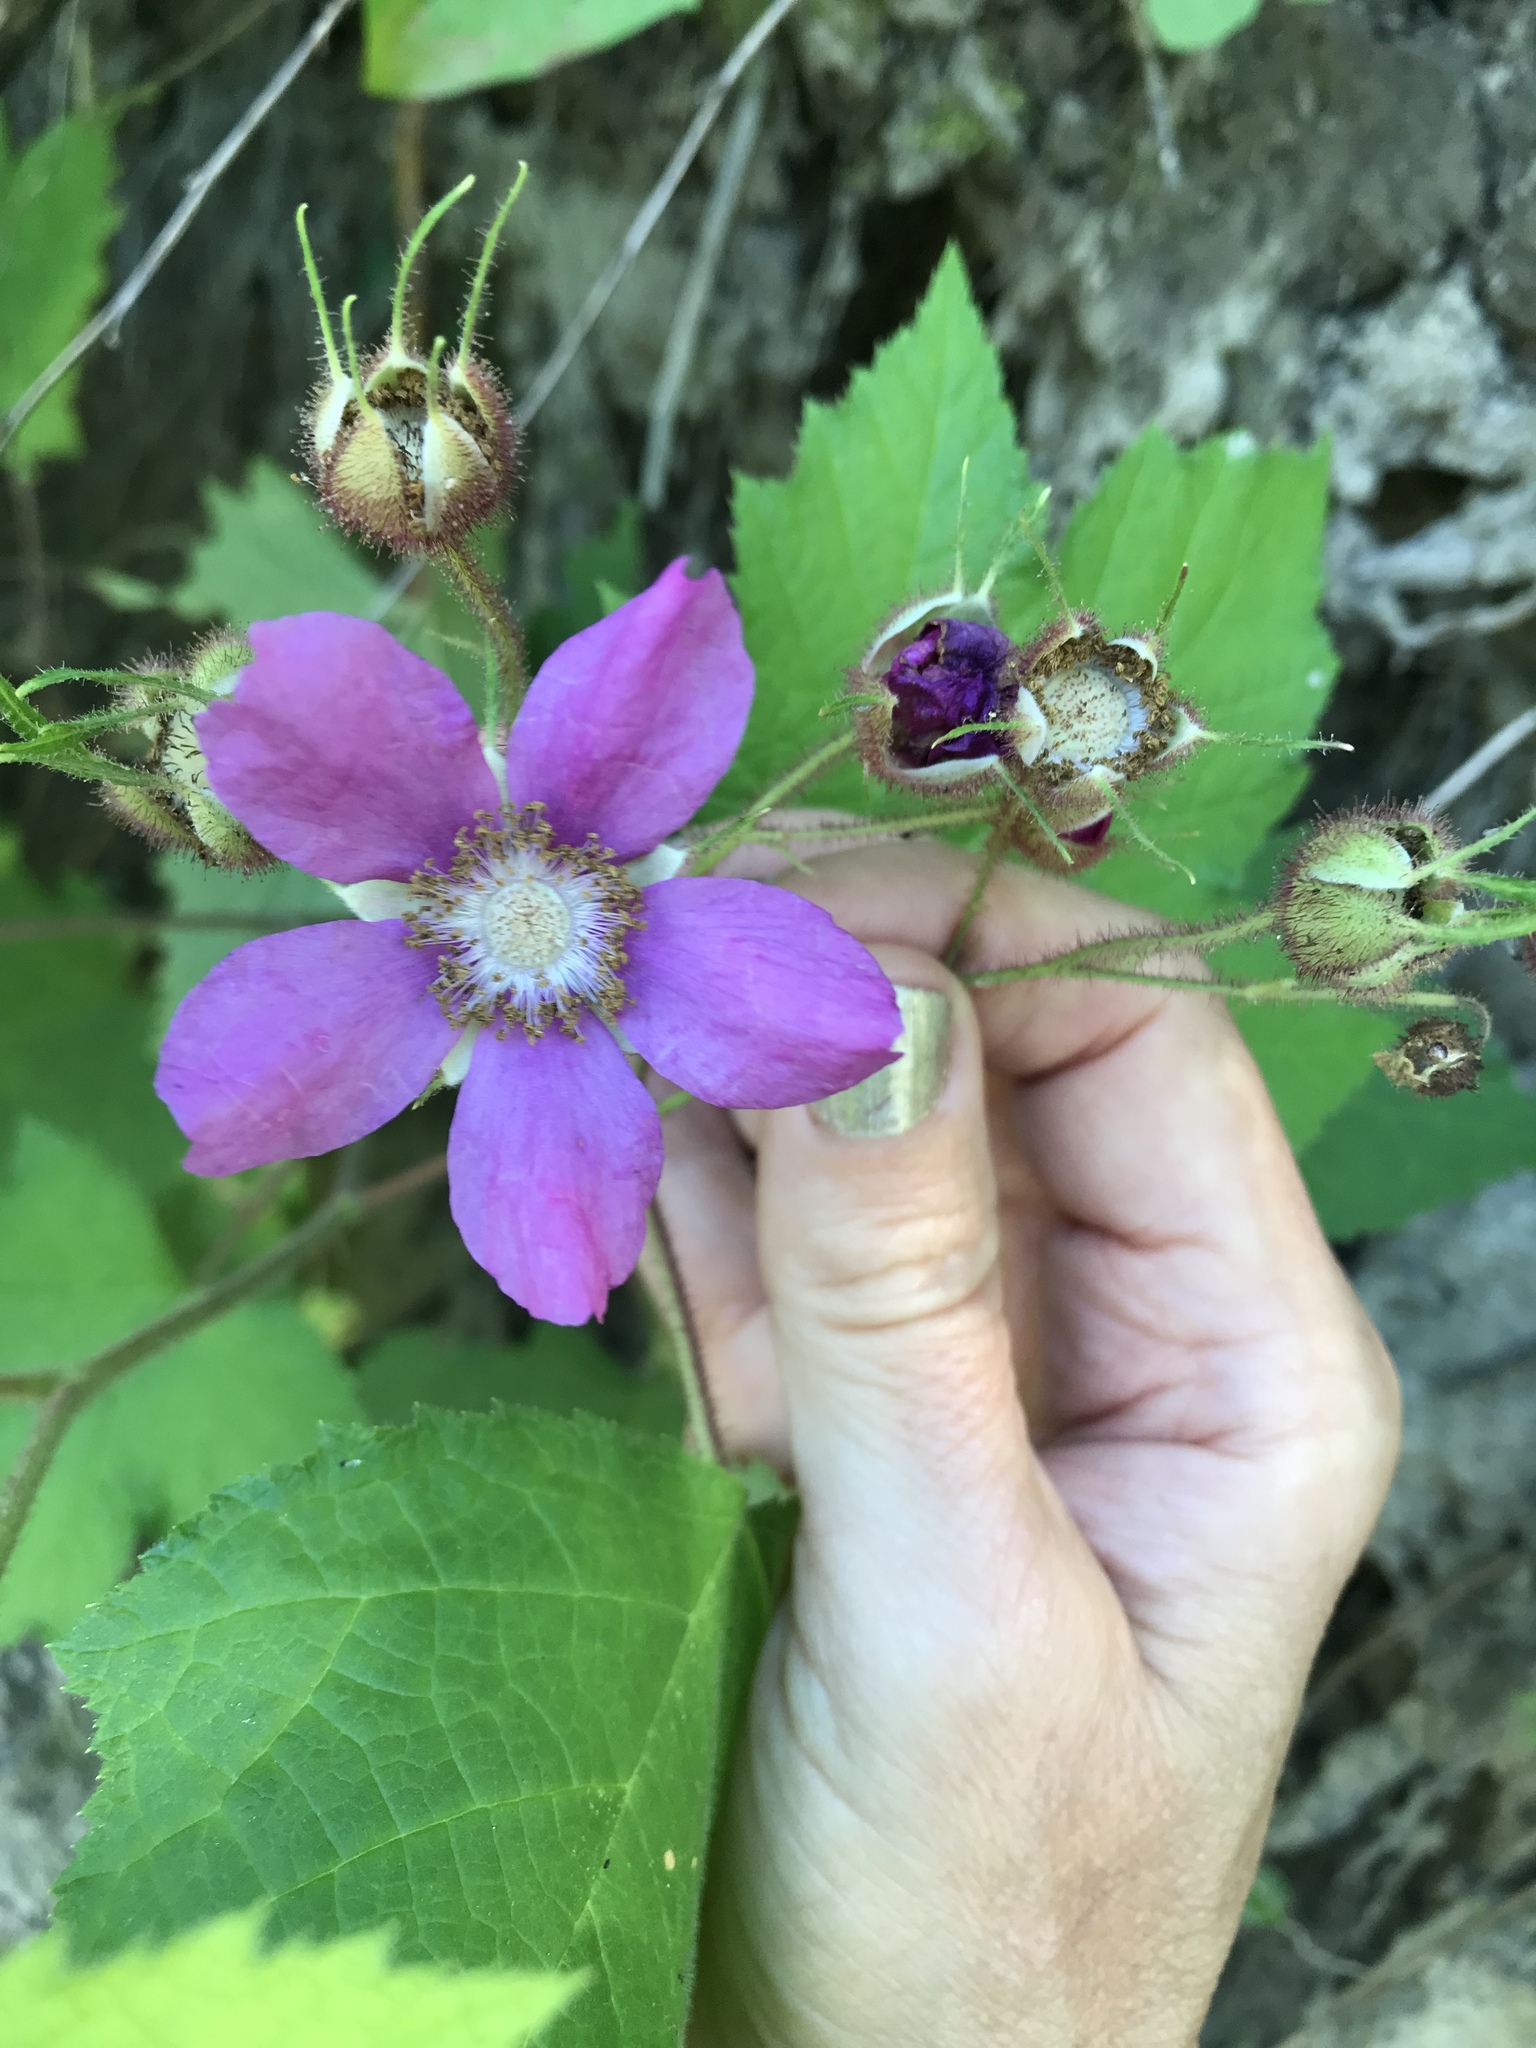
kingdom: Plantae
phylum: Tracheophyta
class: Magnoliopsida
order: Rosales
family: Rosaceae
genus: Rubus
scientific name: Rubus odoratus
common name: Purple-flowered raspberry
